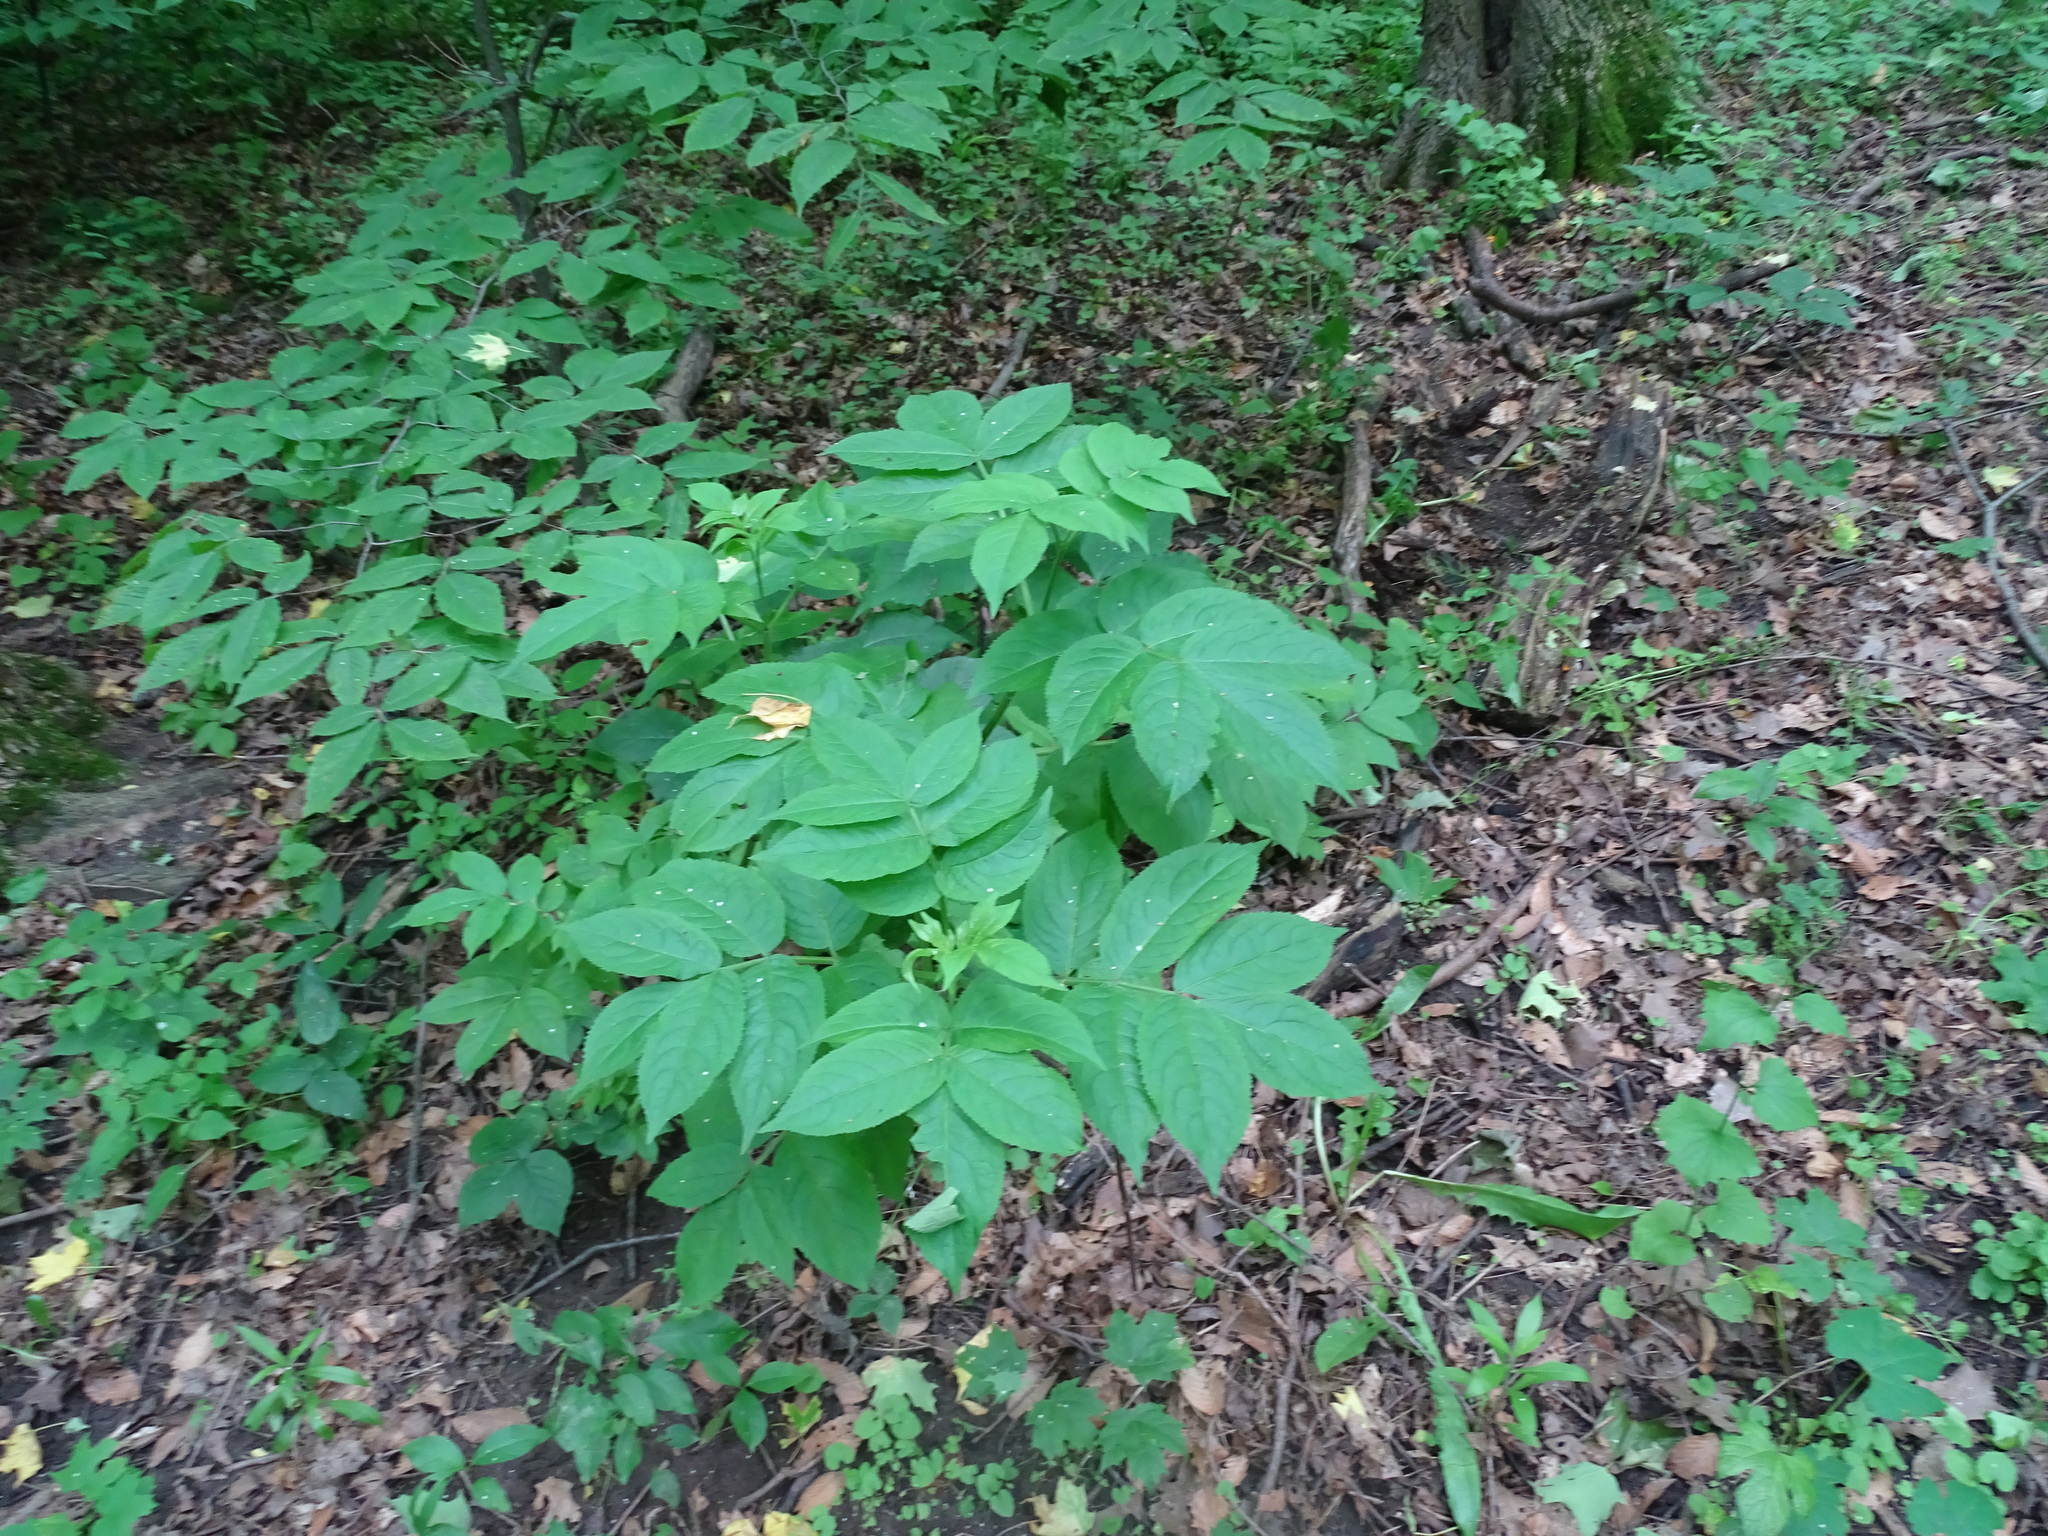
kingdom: Plantae
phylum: Tracheophyta
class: Magnoliopsida
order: Dipsacales
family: Viburnaceae
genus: Sambucus
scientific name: Sambucus racemosa
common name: Red-berried elder
